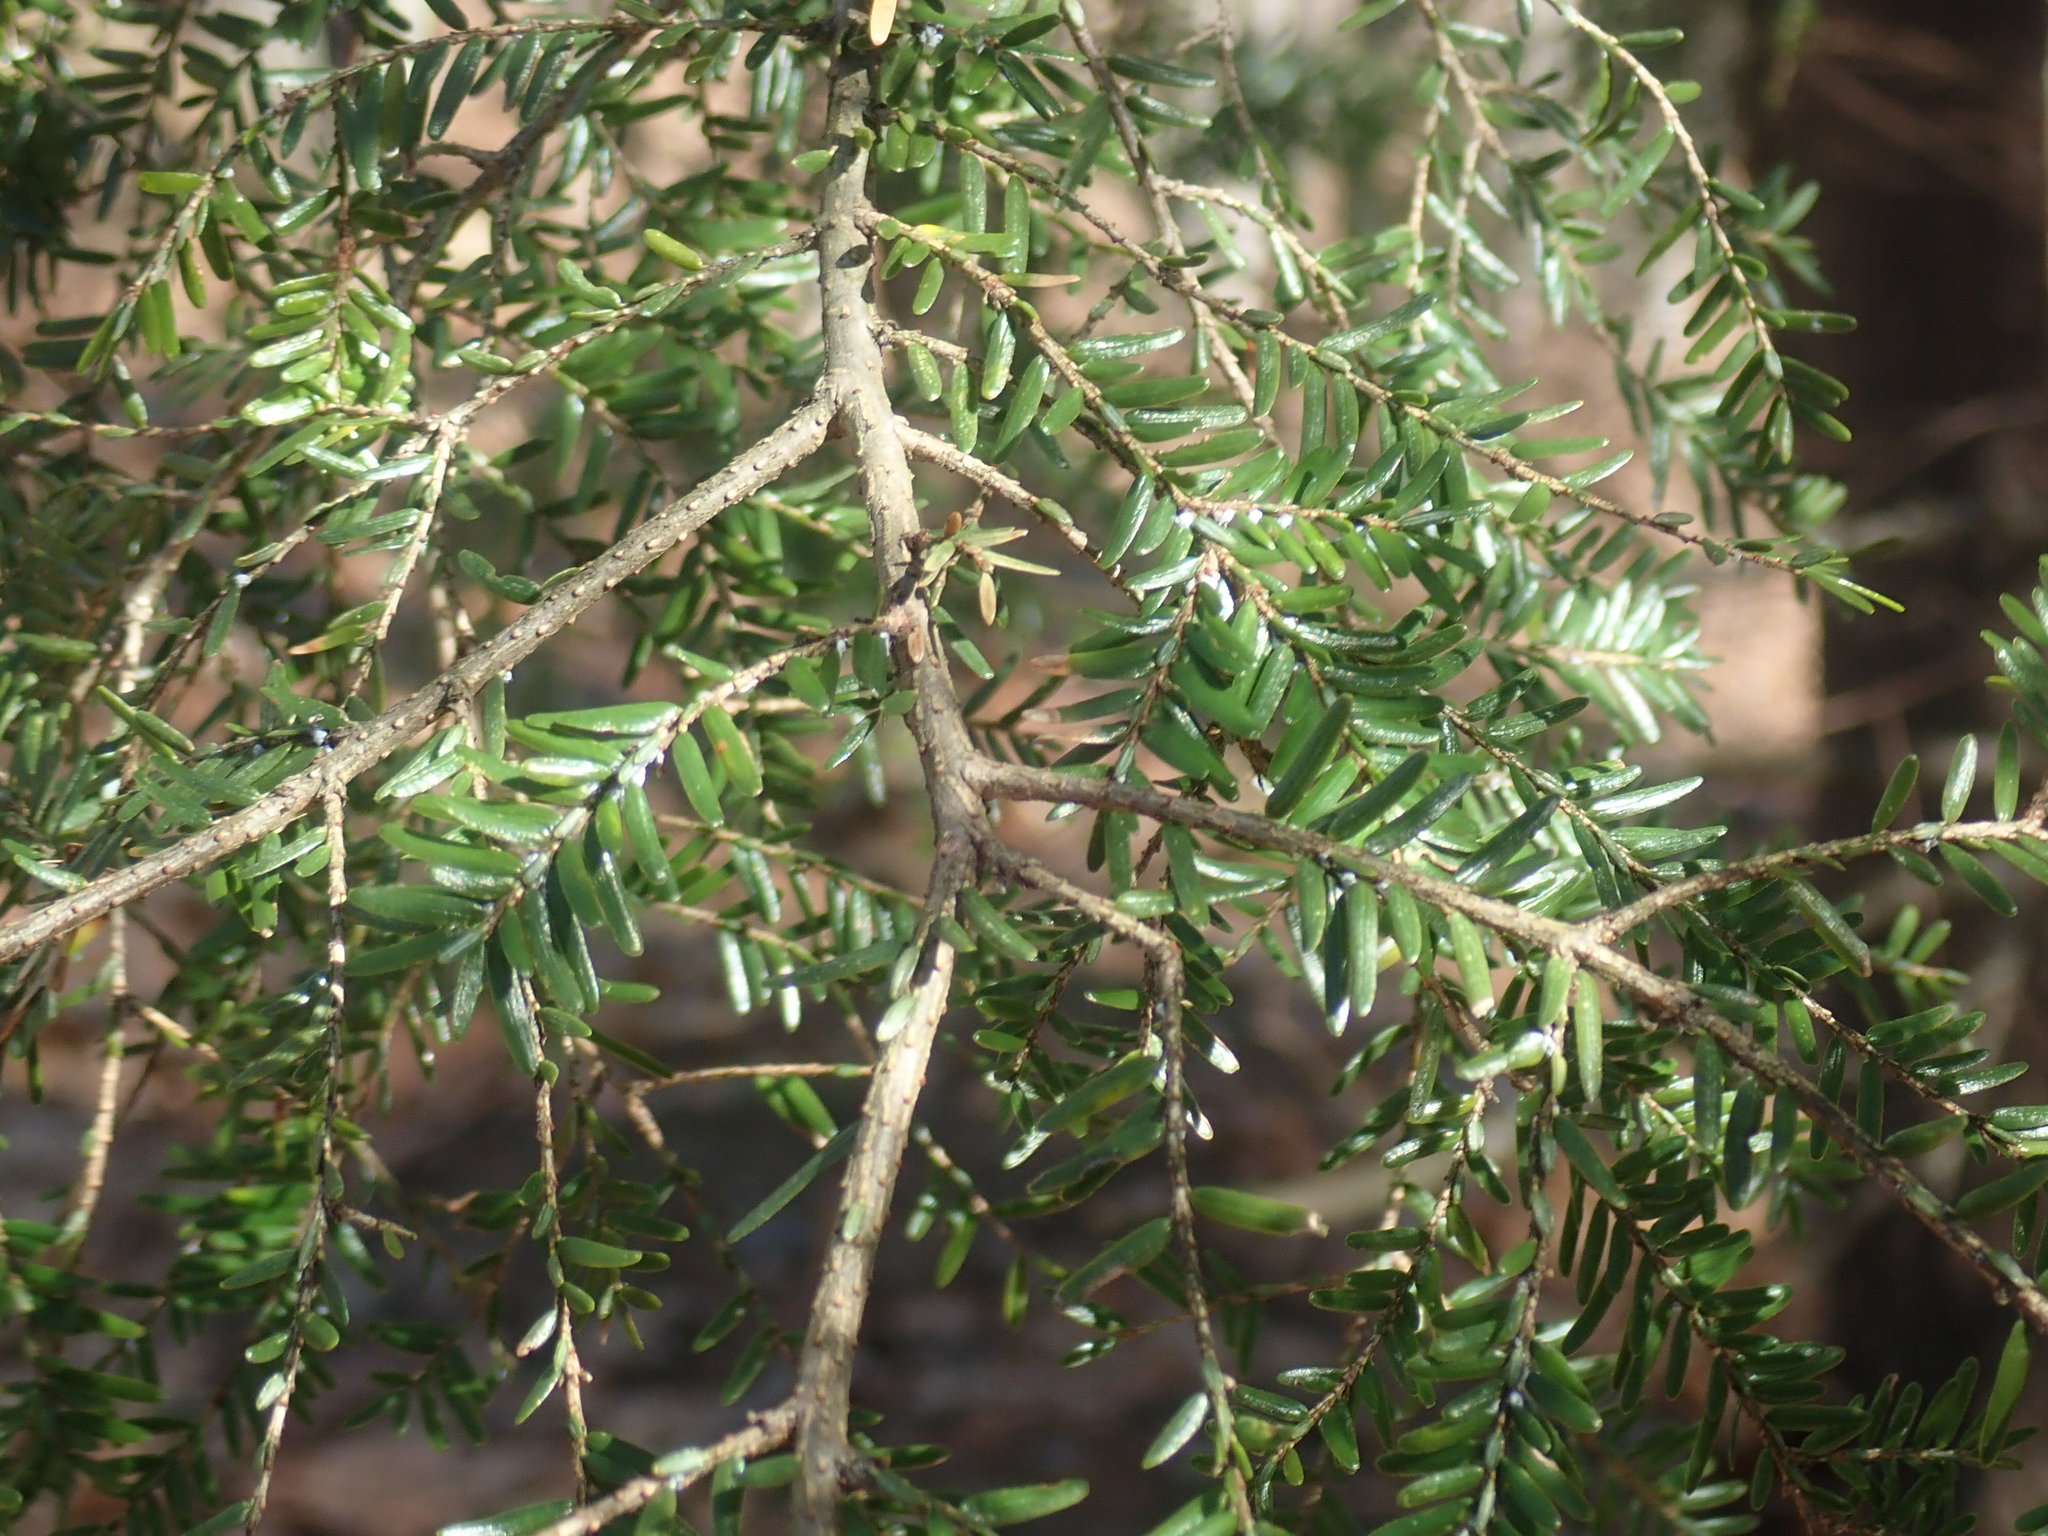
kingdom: Plantae
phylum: Tracheophyta
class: Pinopsida
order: Pinales
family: Pinaceae
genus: Tsuga
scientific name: Tsuga canadensis
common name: Eastern hemlock
